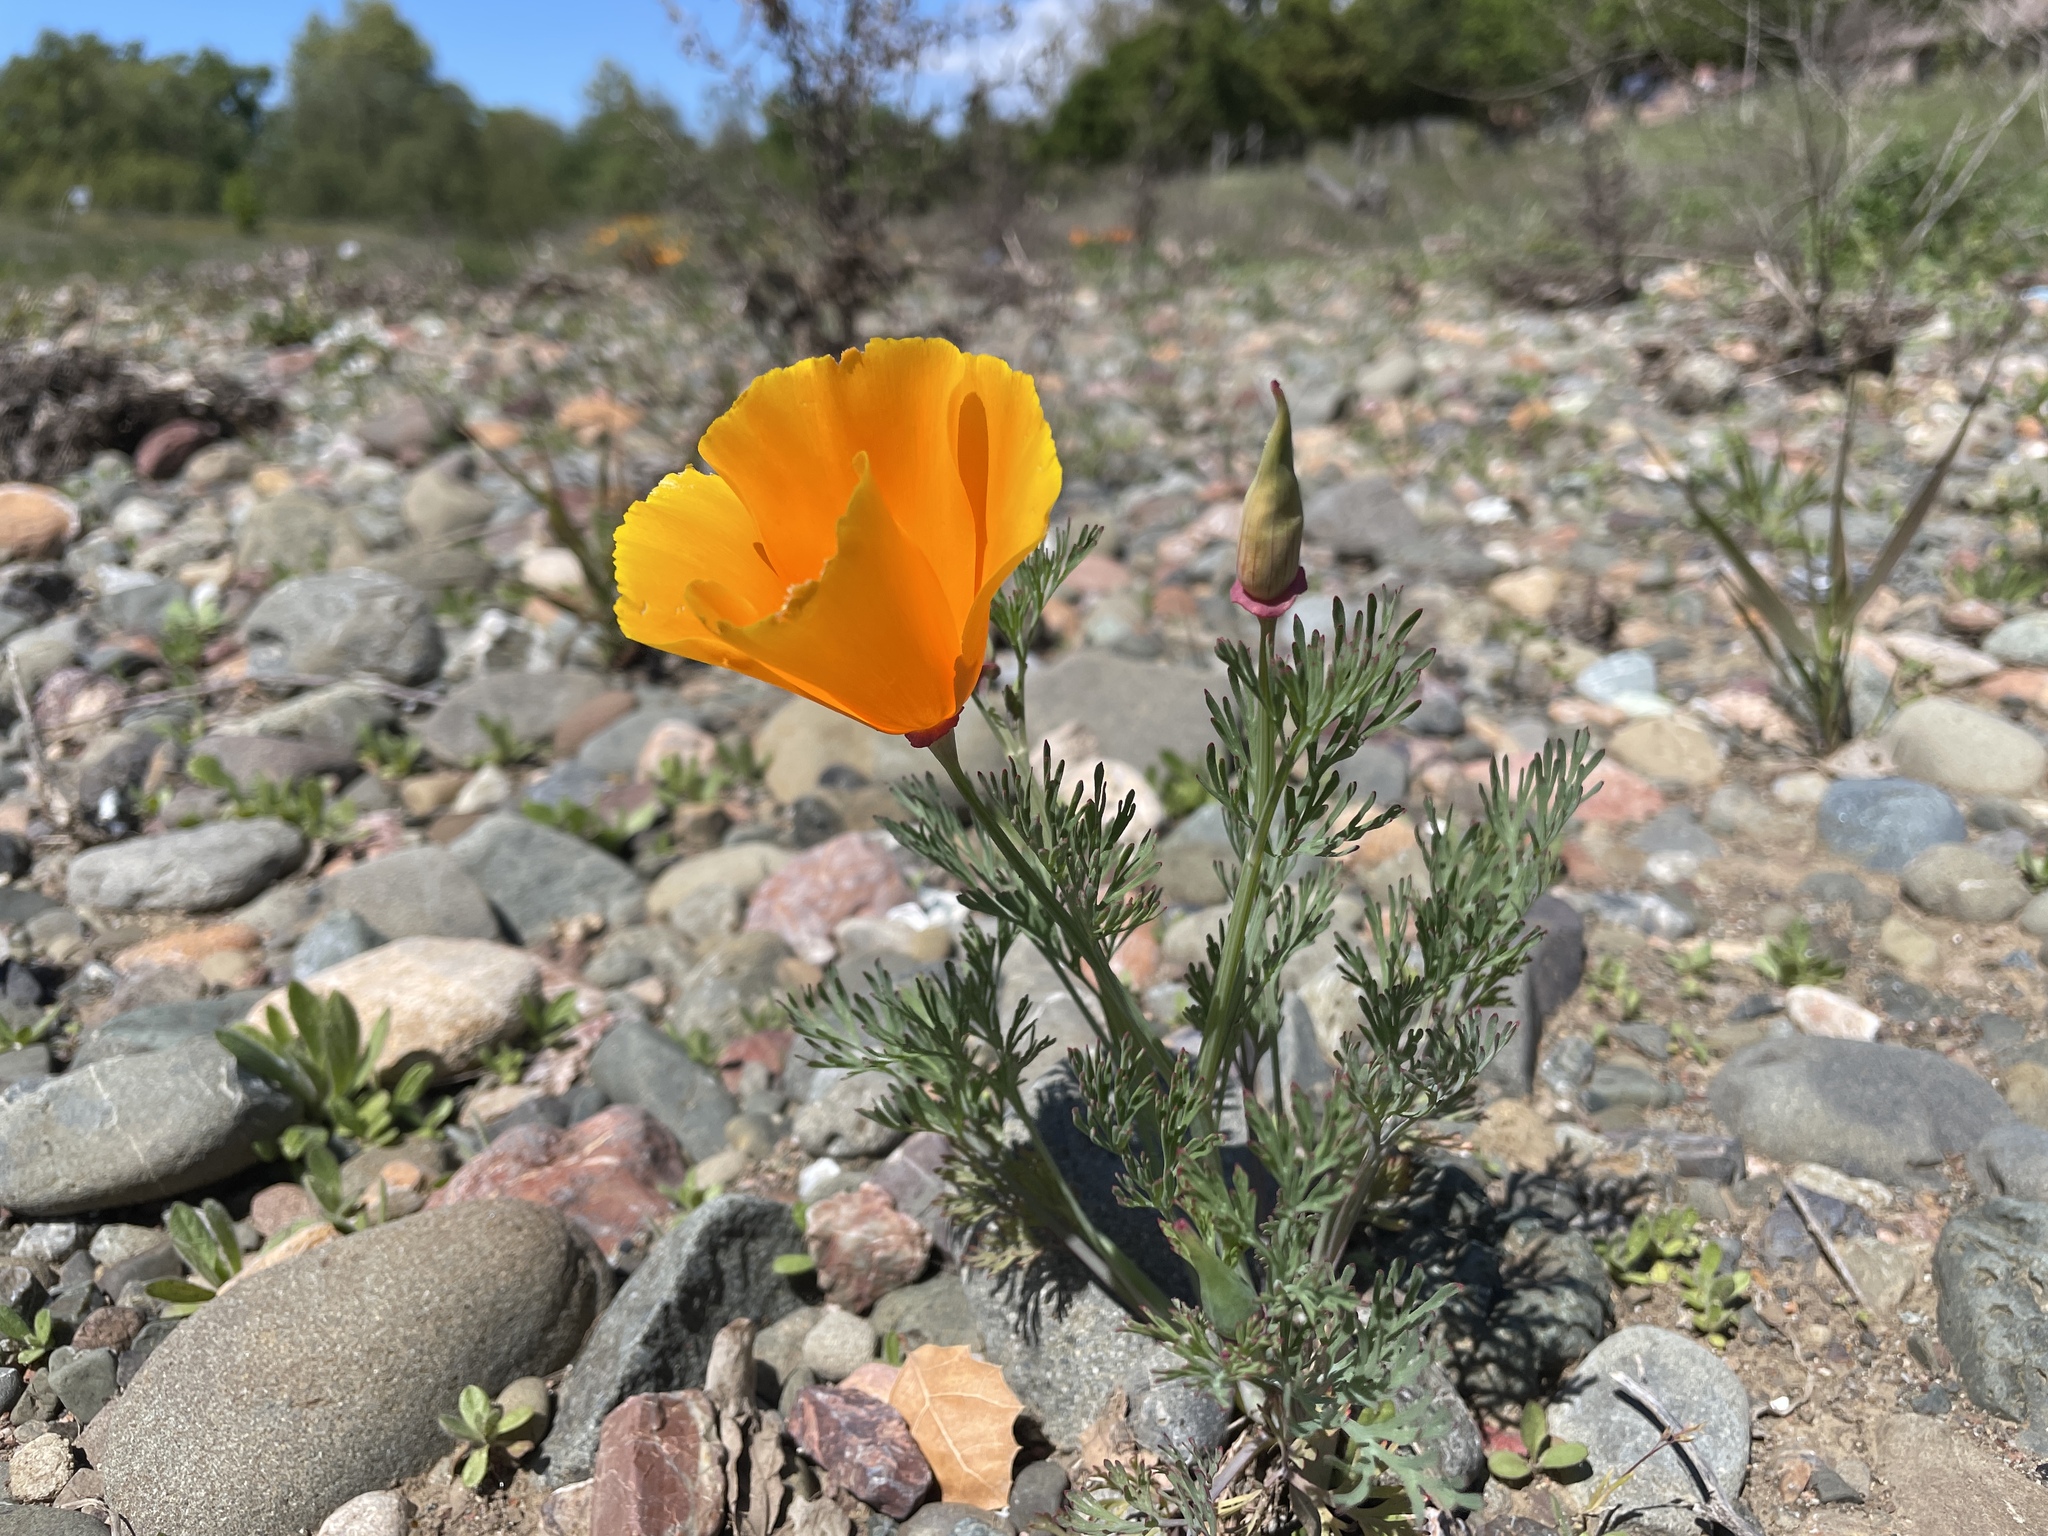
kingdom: Plantae
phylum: Tracheophyta
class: Magnoliopsida
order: Ranunculales
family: Papaveraceae
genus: Eschscholzia
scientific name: Eschscholzia californica
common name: California poppy
